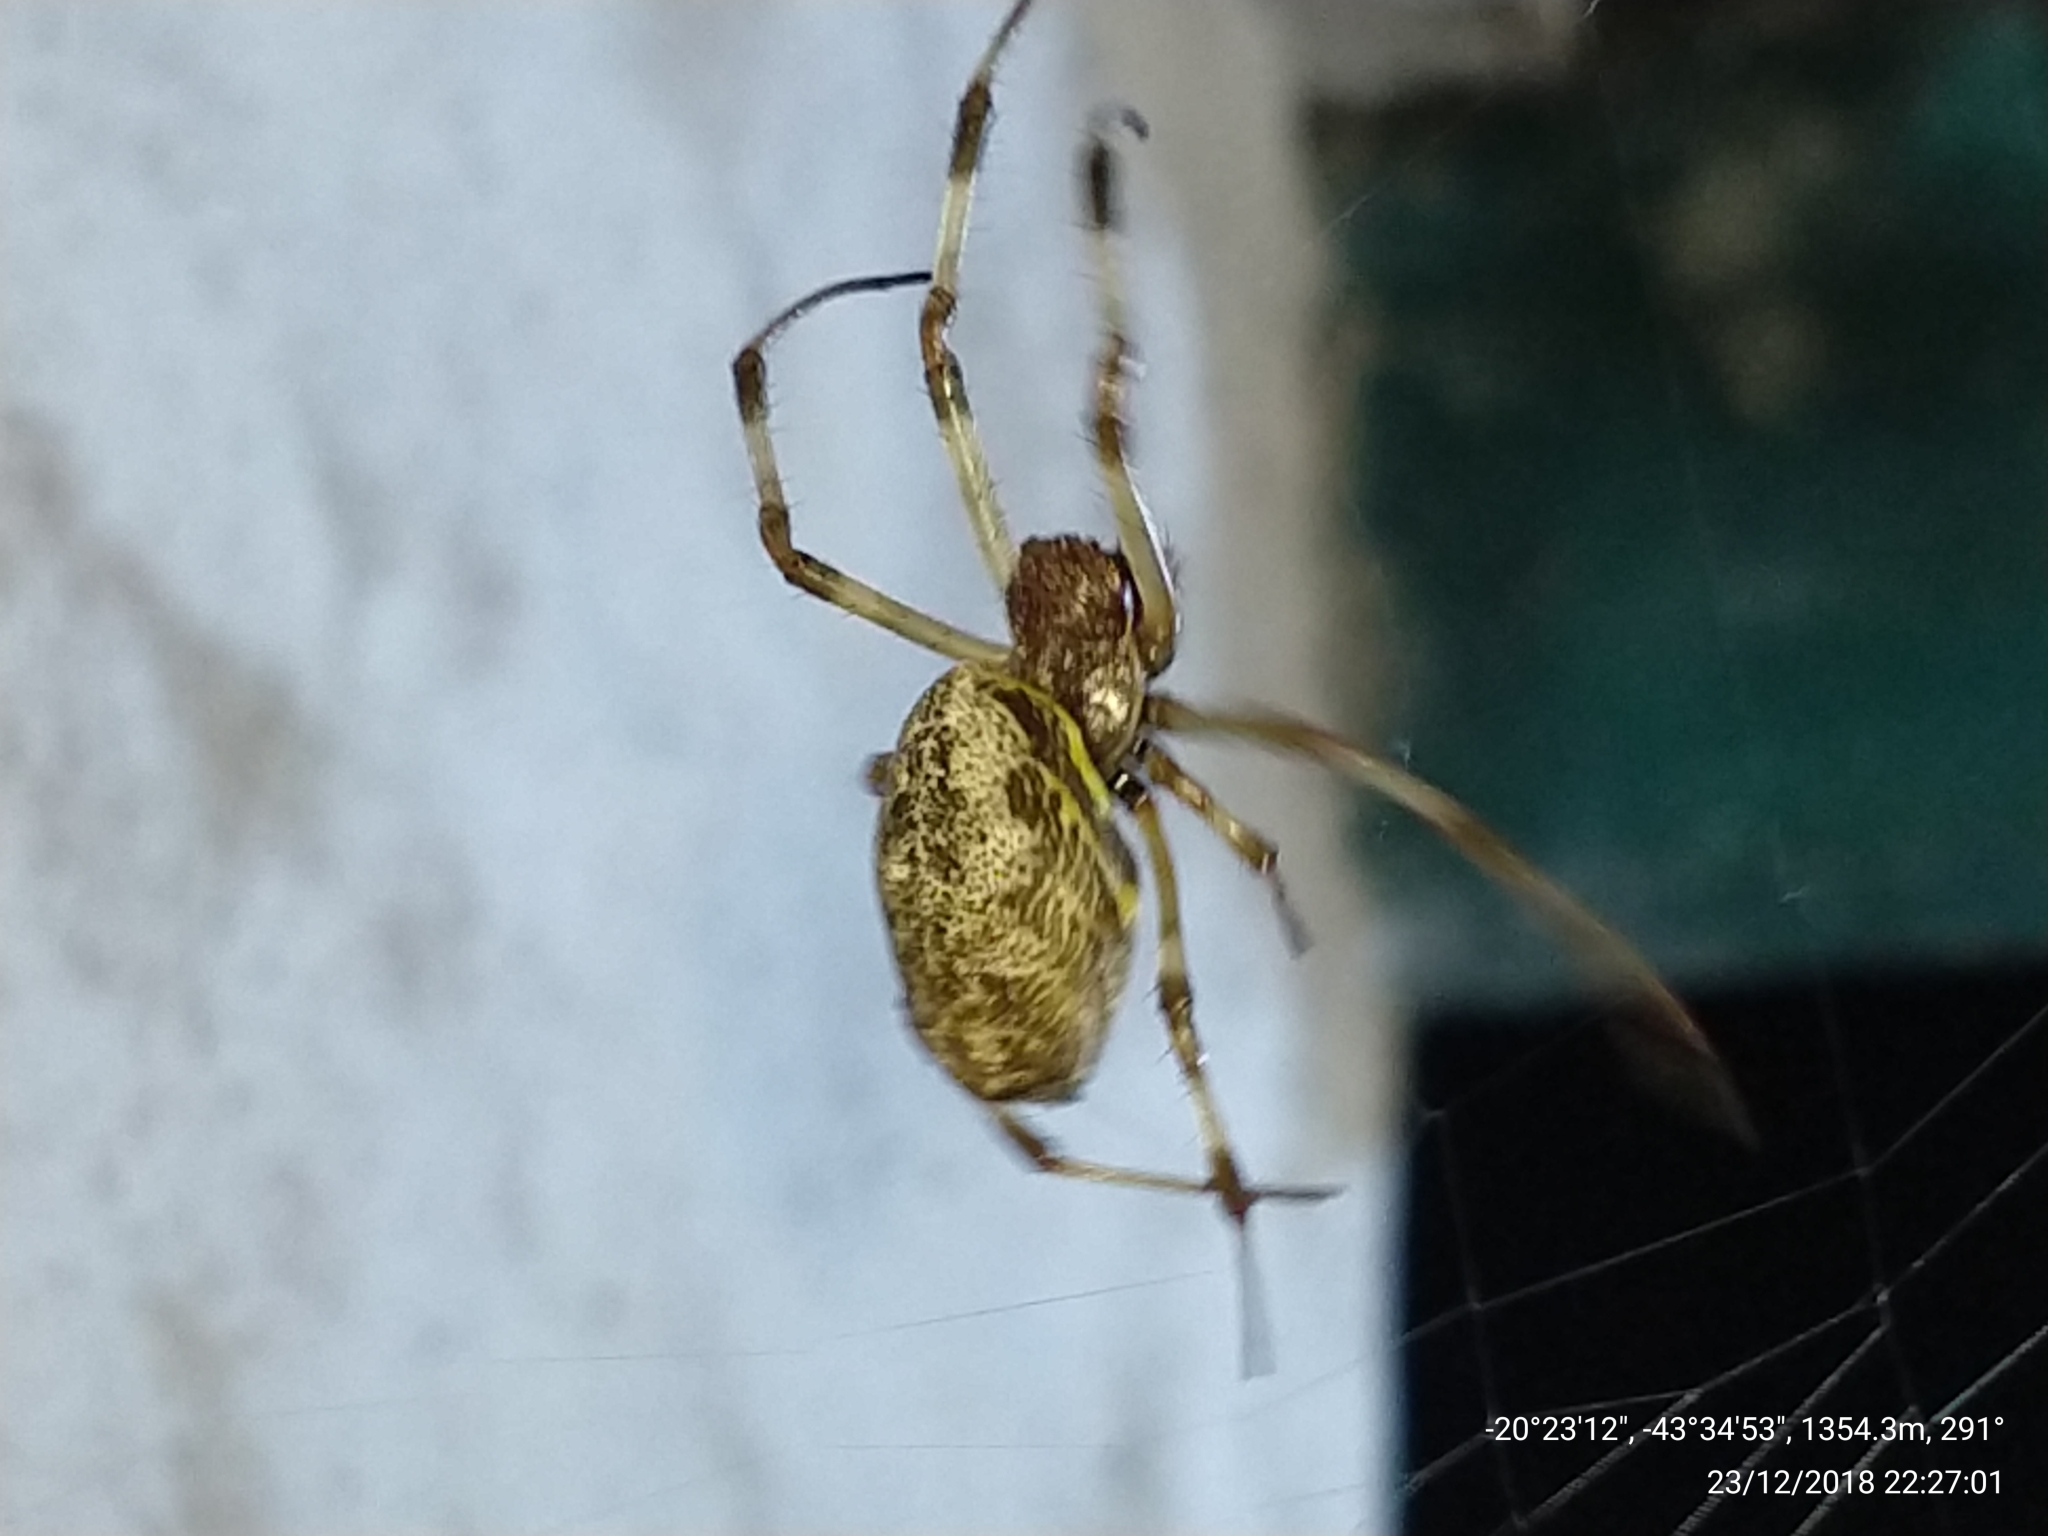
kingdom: Animalia
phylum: Arthropoda
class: Arachnida
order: Araneae
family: Araneidae
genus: Nephilingis
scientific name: Nephilingis cruentata
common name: African hermit spider
